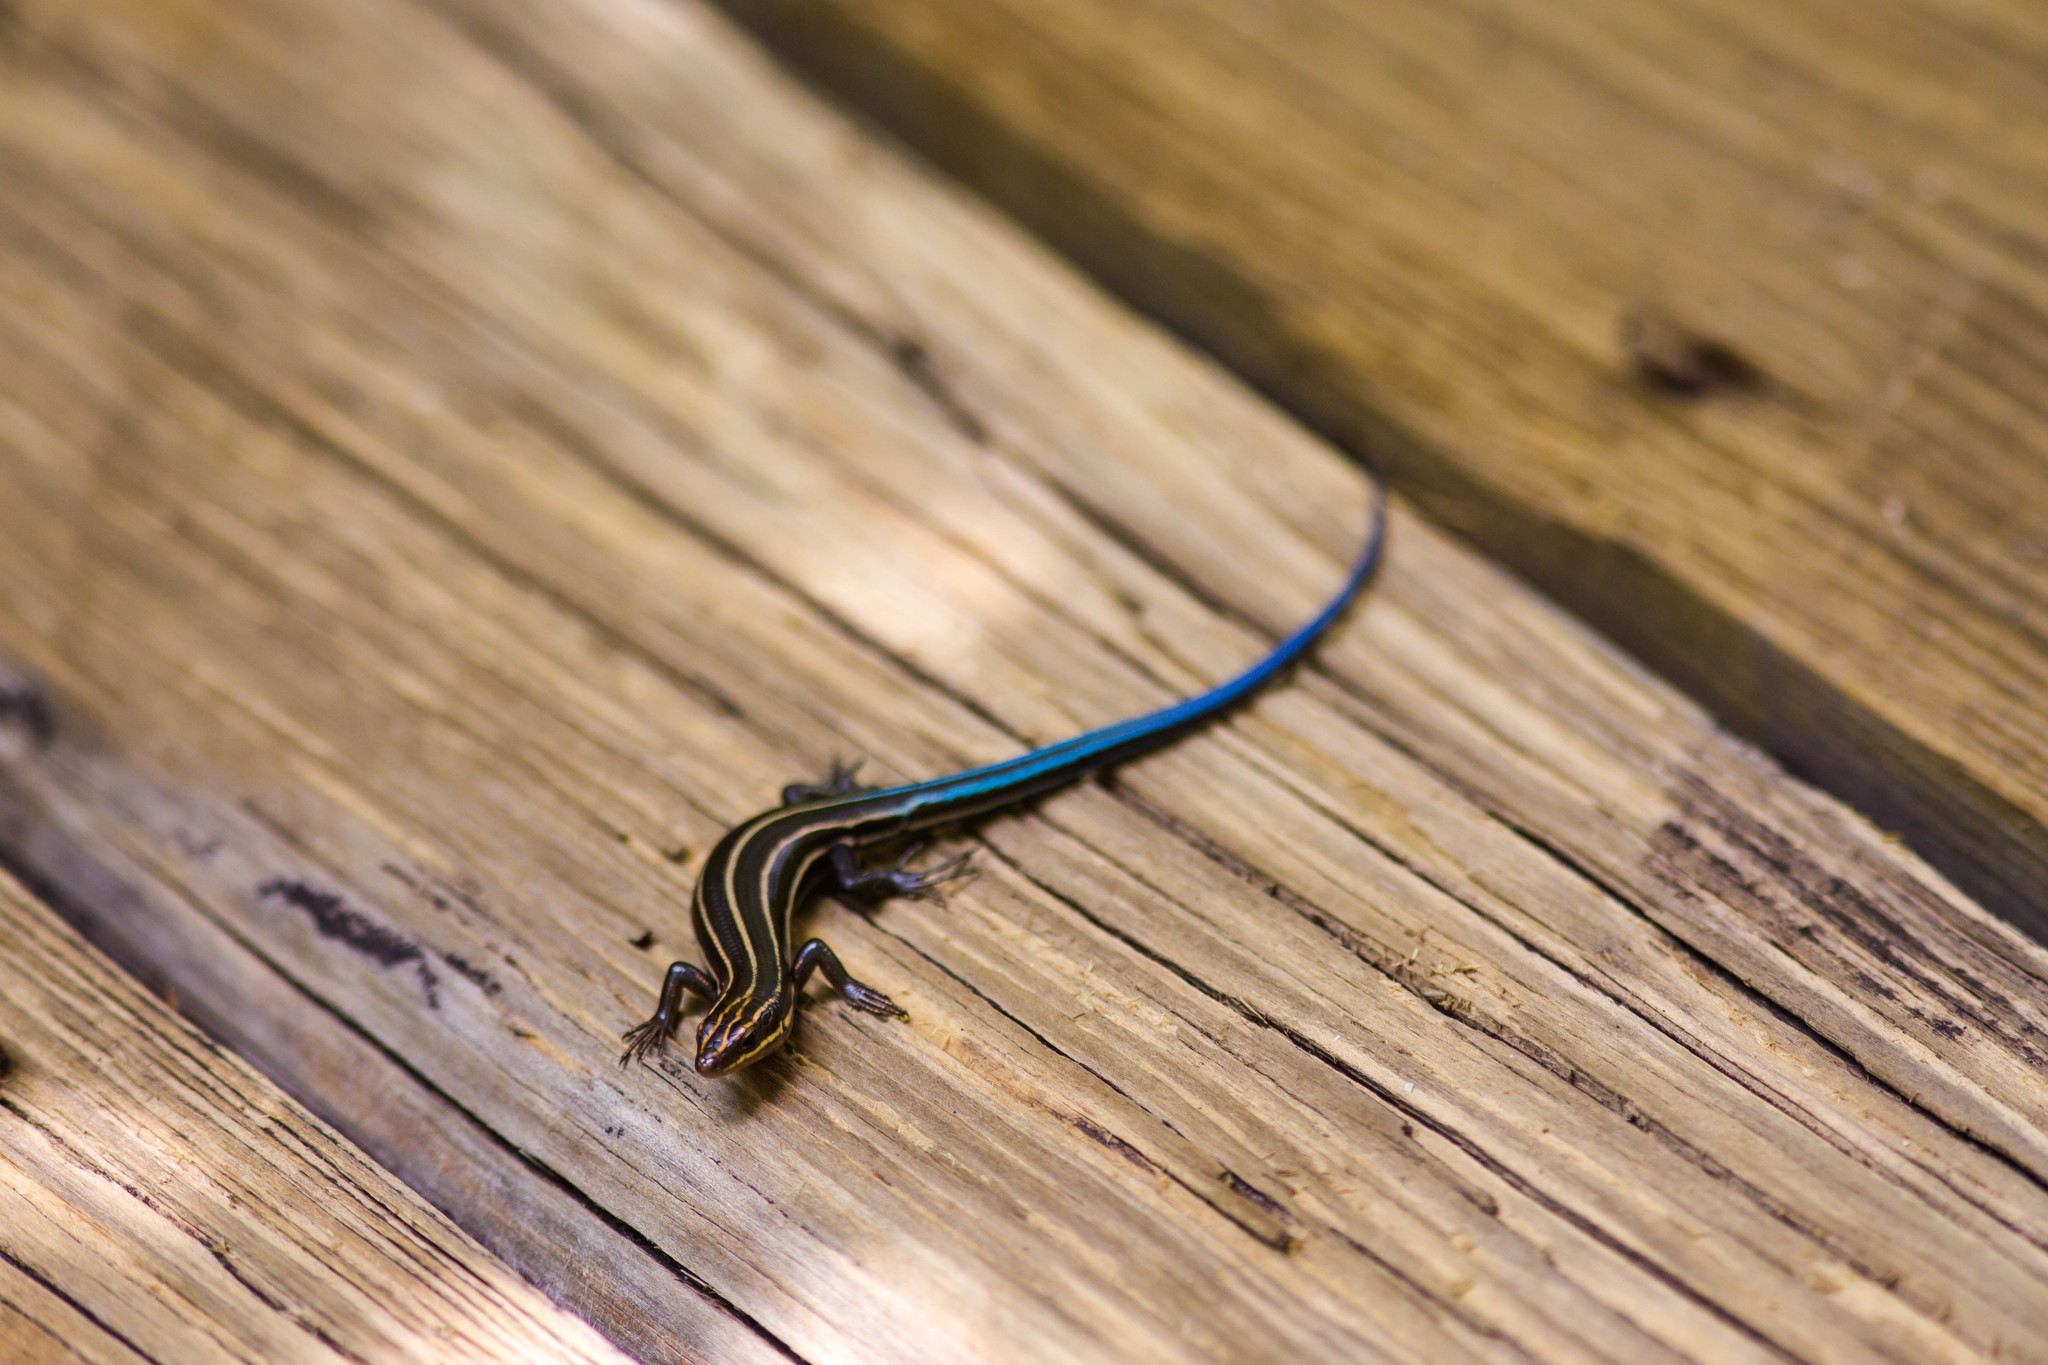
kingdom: Animalia
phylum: Chordata
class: Squamata
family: Scincidae
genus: Plestiodon
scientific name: Plestiodon fasciatus
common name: Five-lined skink
